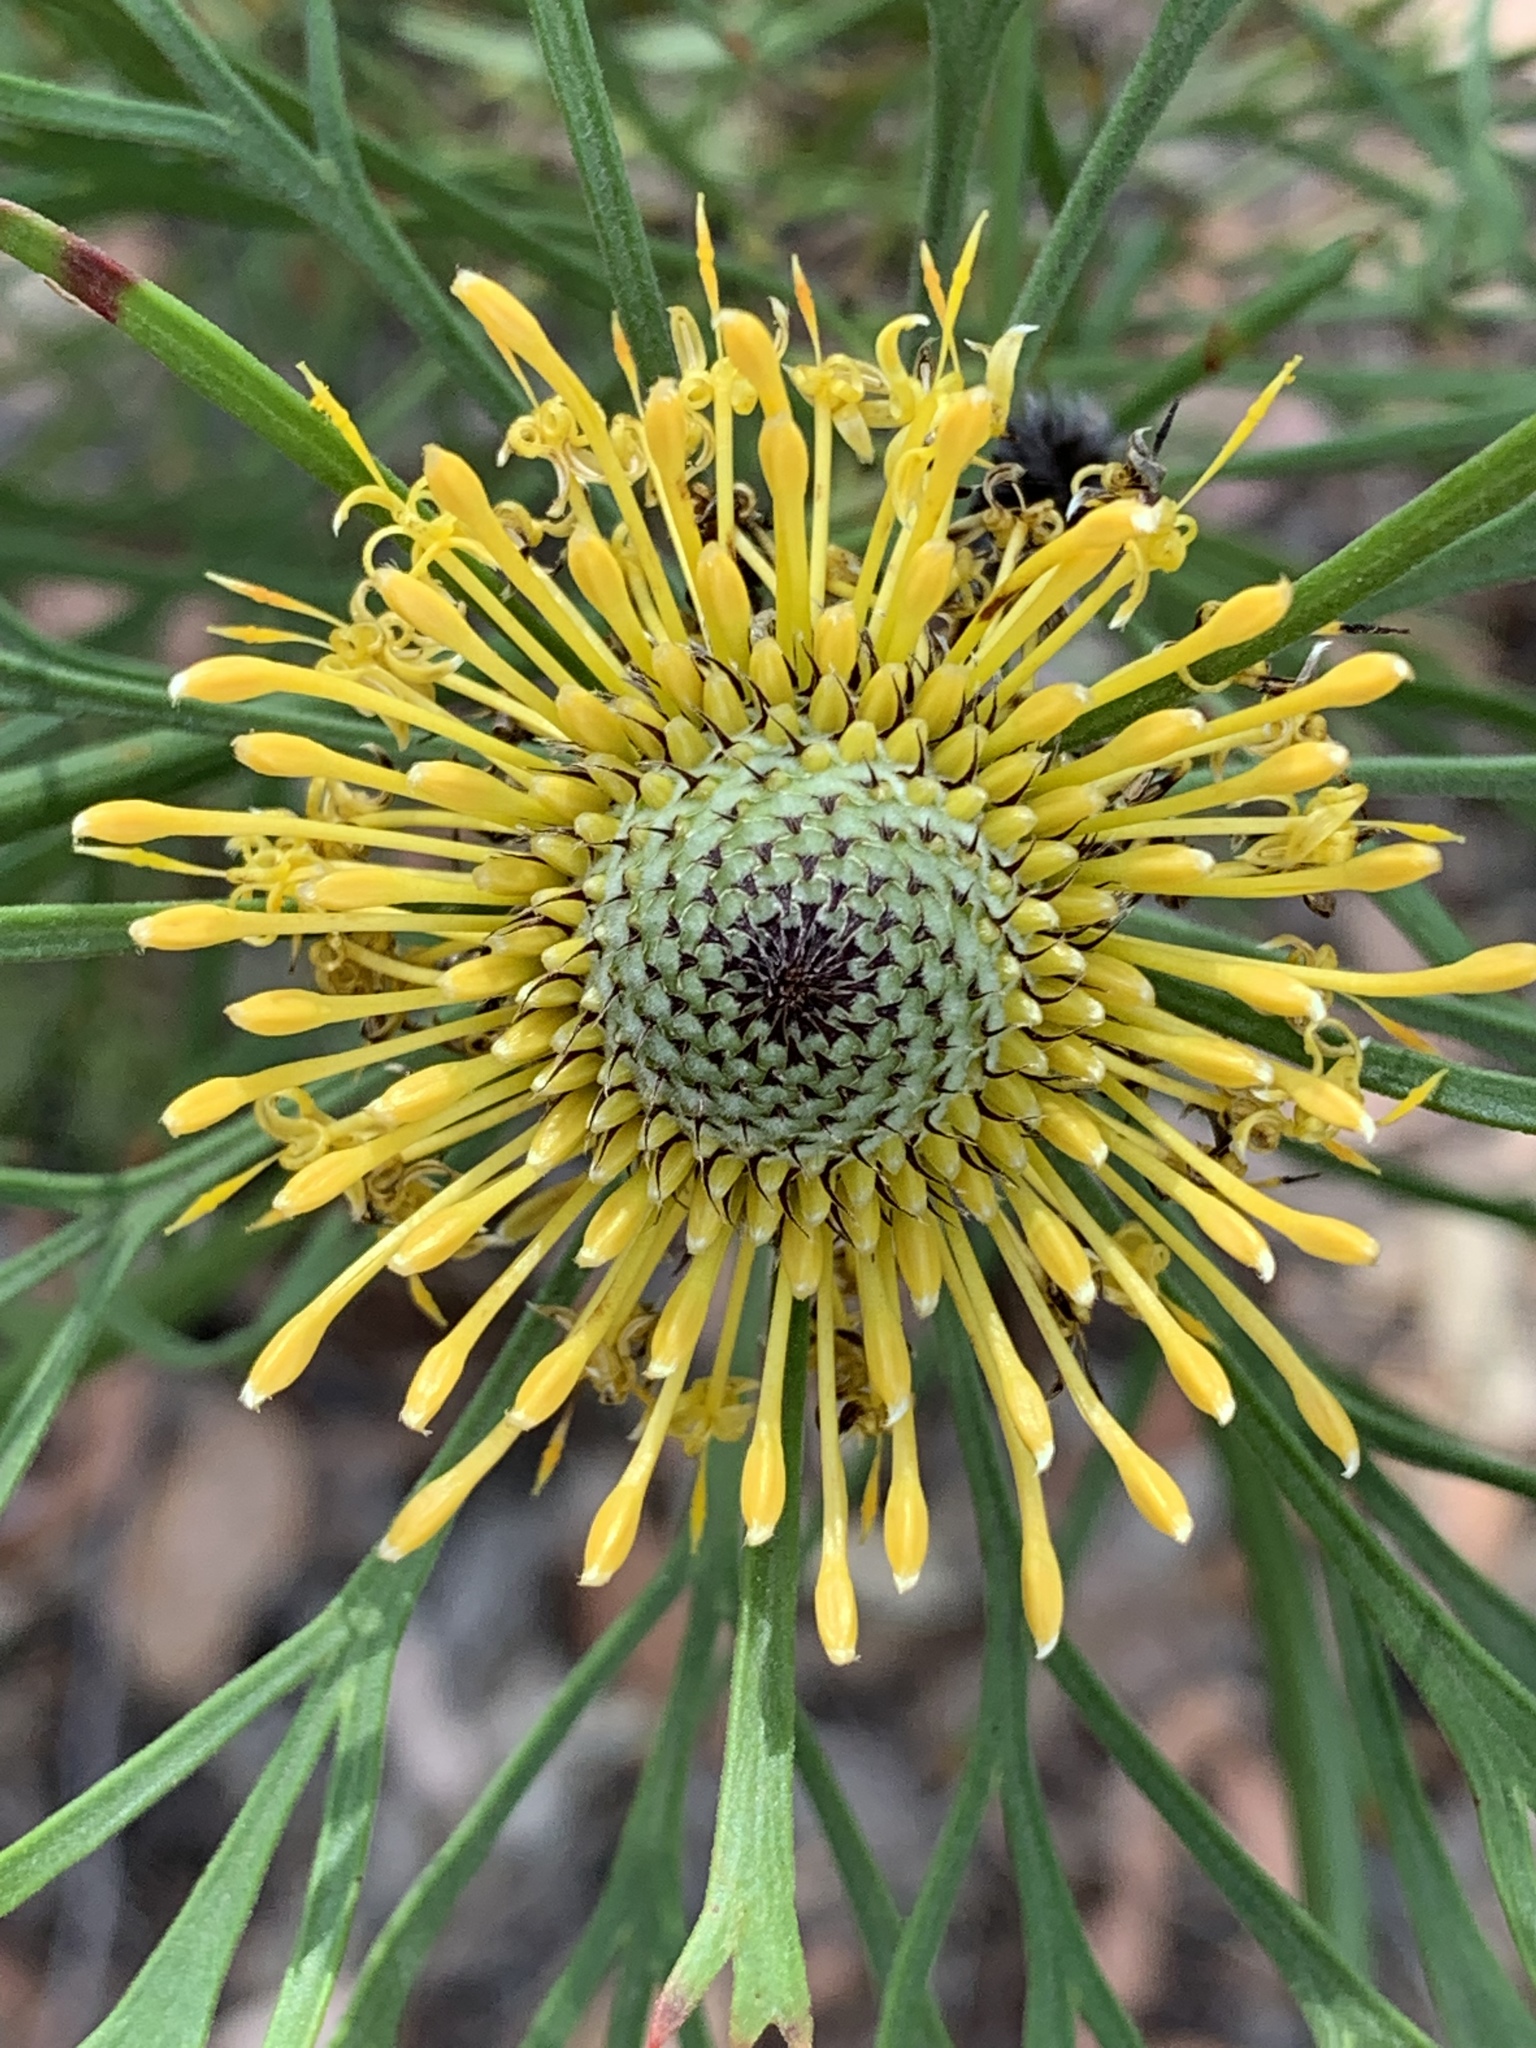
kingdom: Plantae
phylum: Tracheophyta
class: Magnoliopsida
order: Proteales
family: Proteaceae
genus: Isopogon
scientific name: Isopogon anemonifolius
